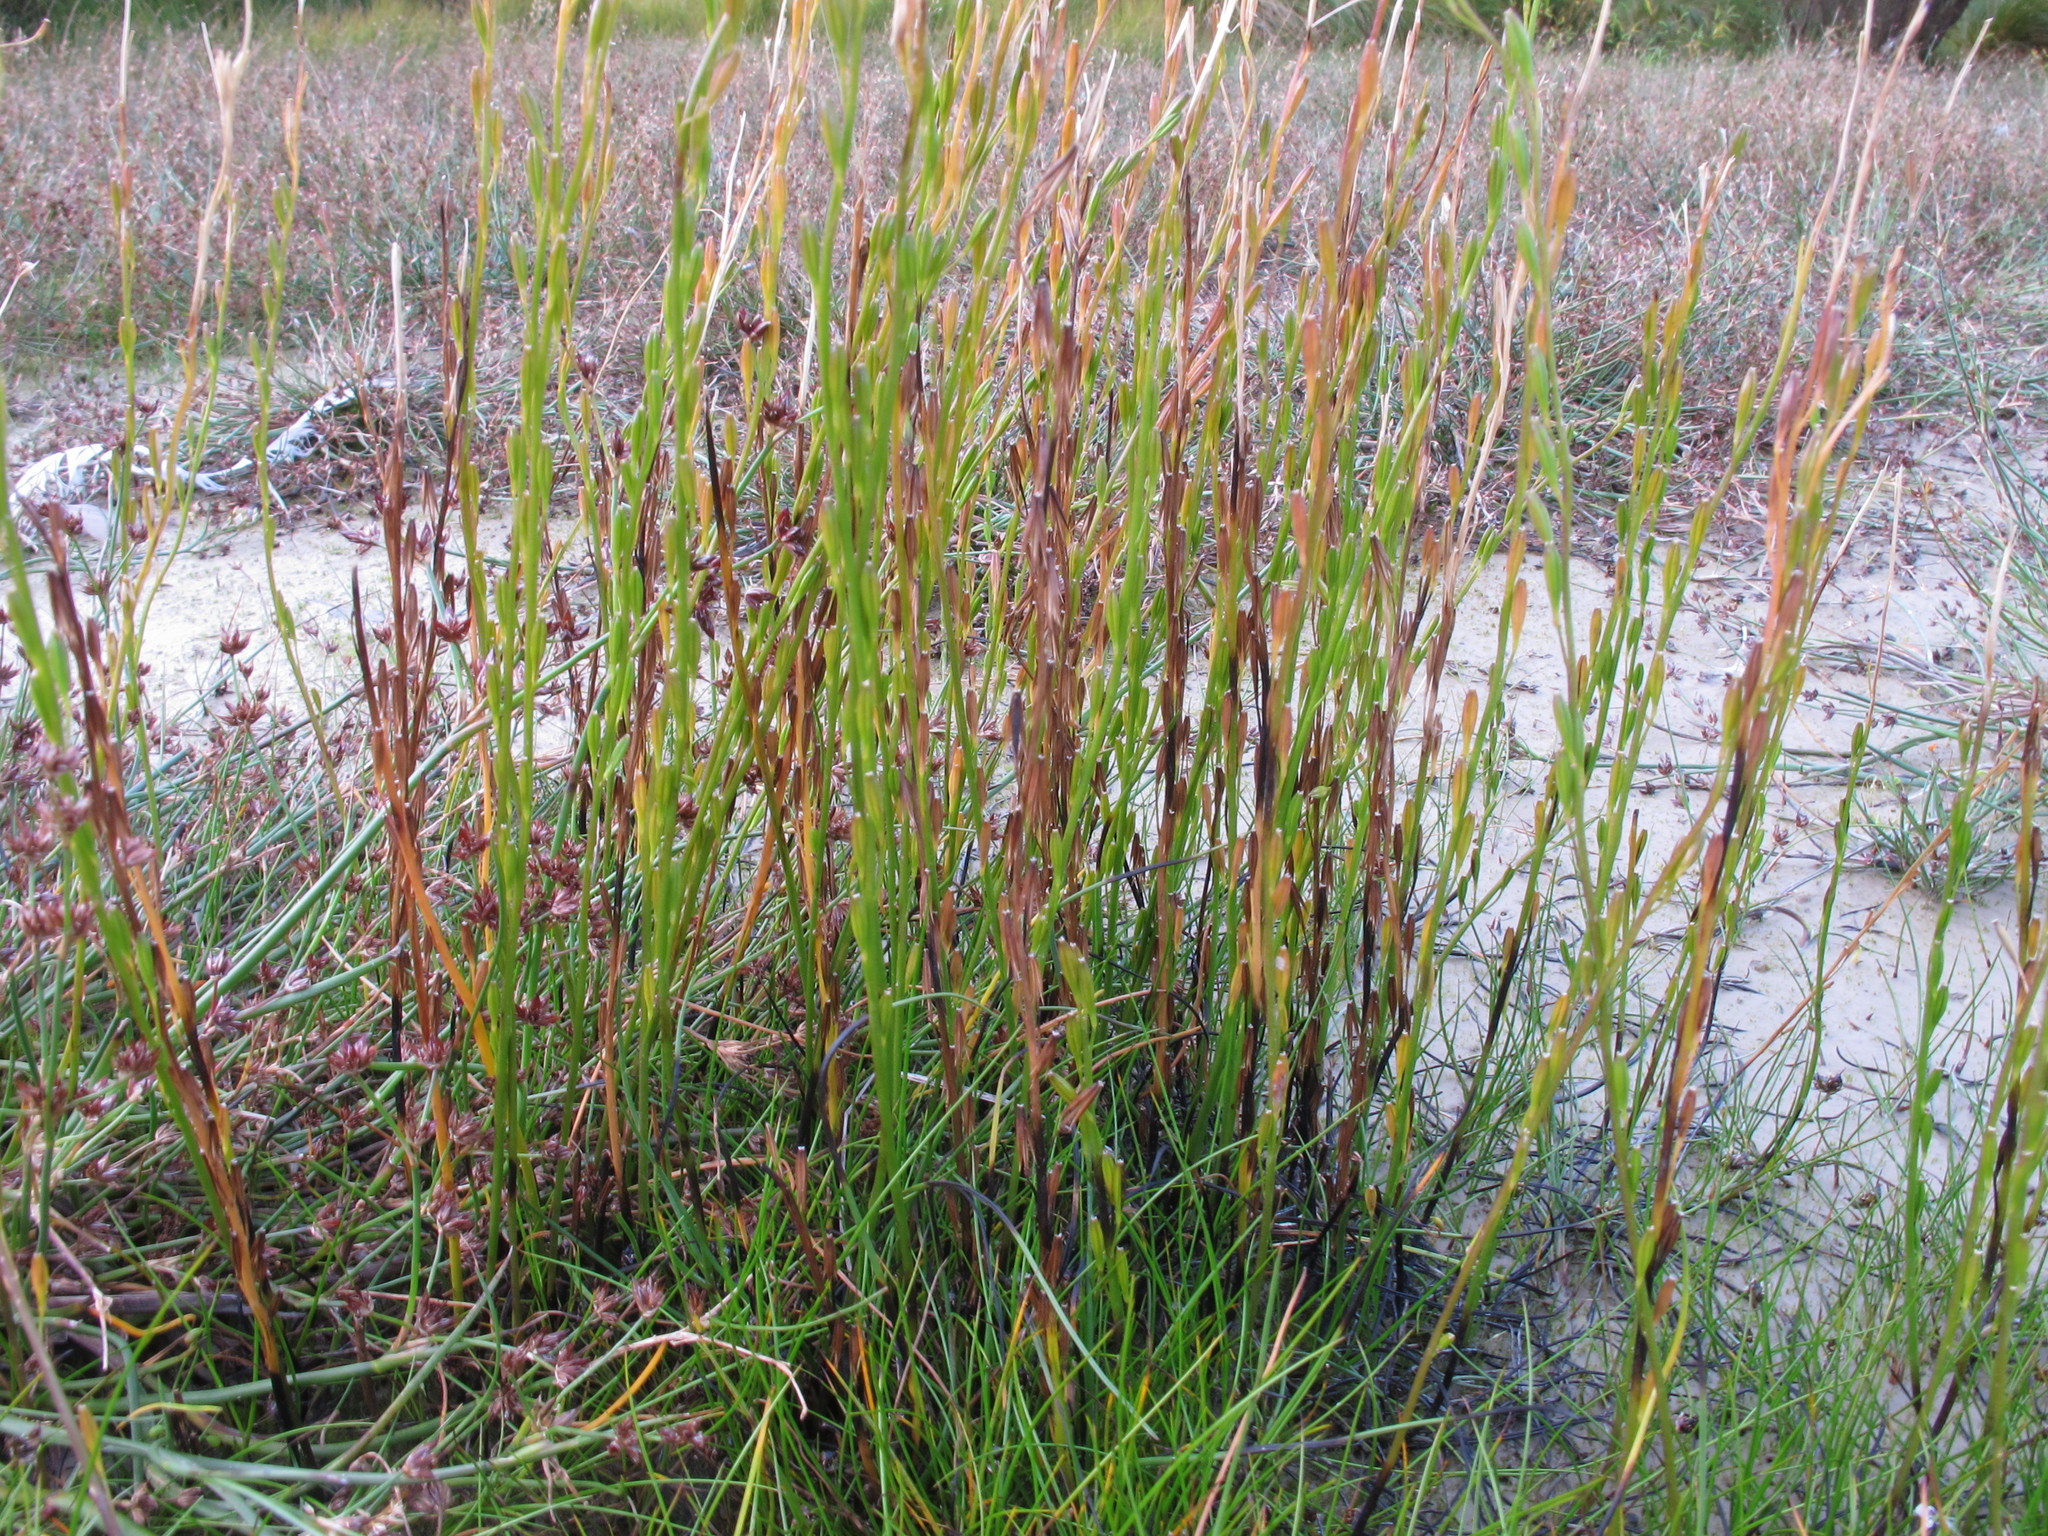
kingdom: Plantae
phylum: Tracheophyta
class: Liliopsida
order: Alismatales
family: Juncaginaceae
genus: Triglochin
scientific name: Triglochin palustris
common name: Marsh arrowgrass
